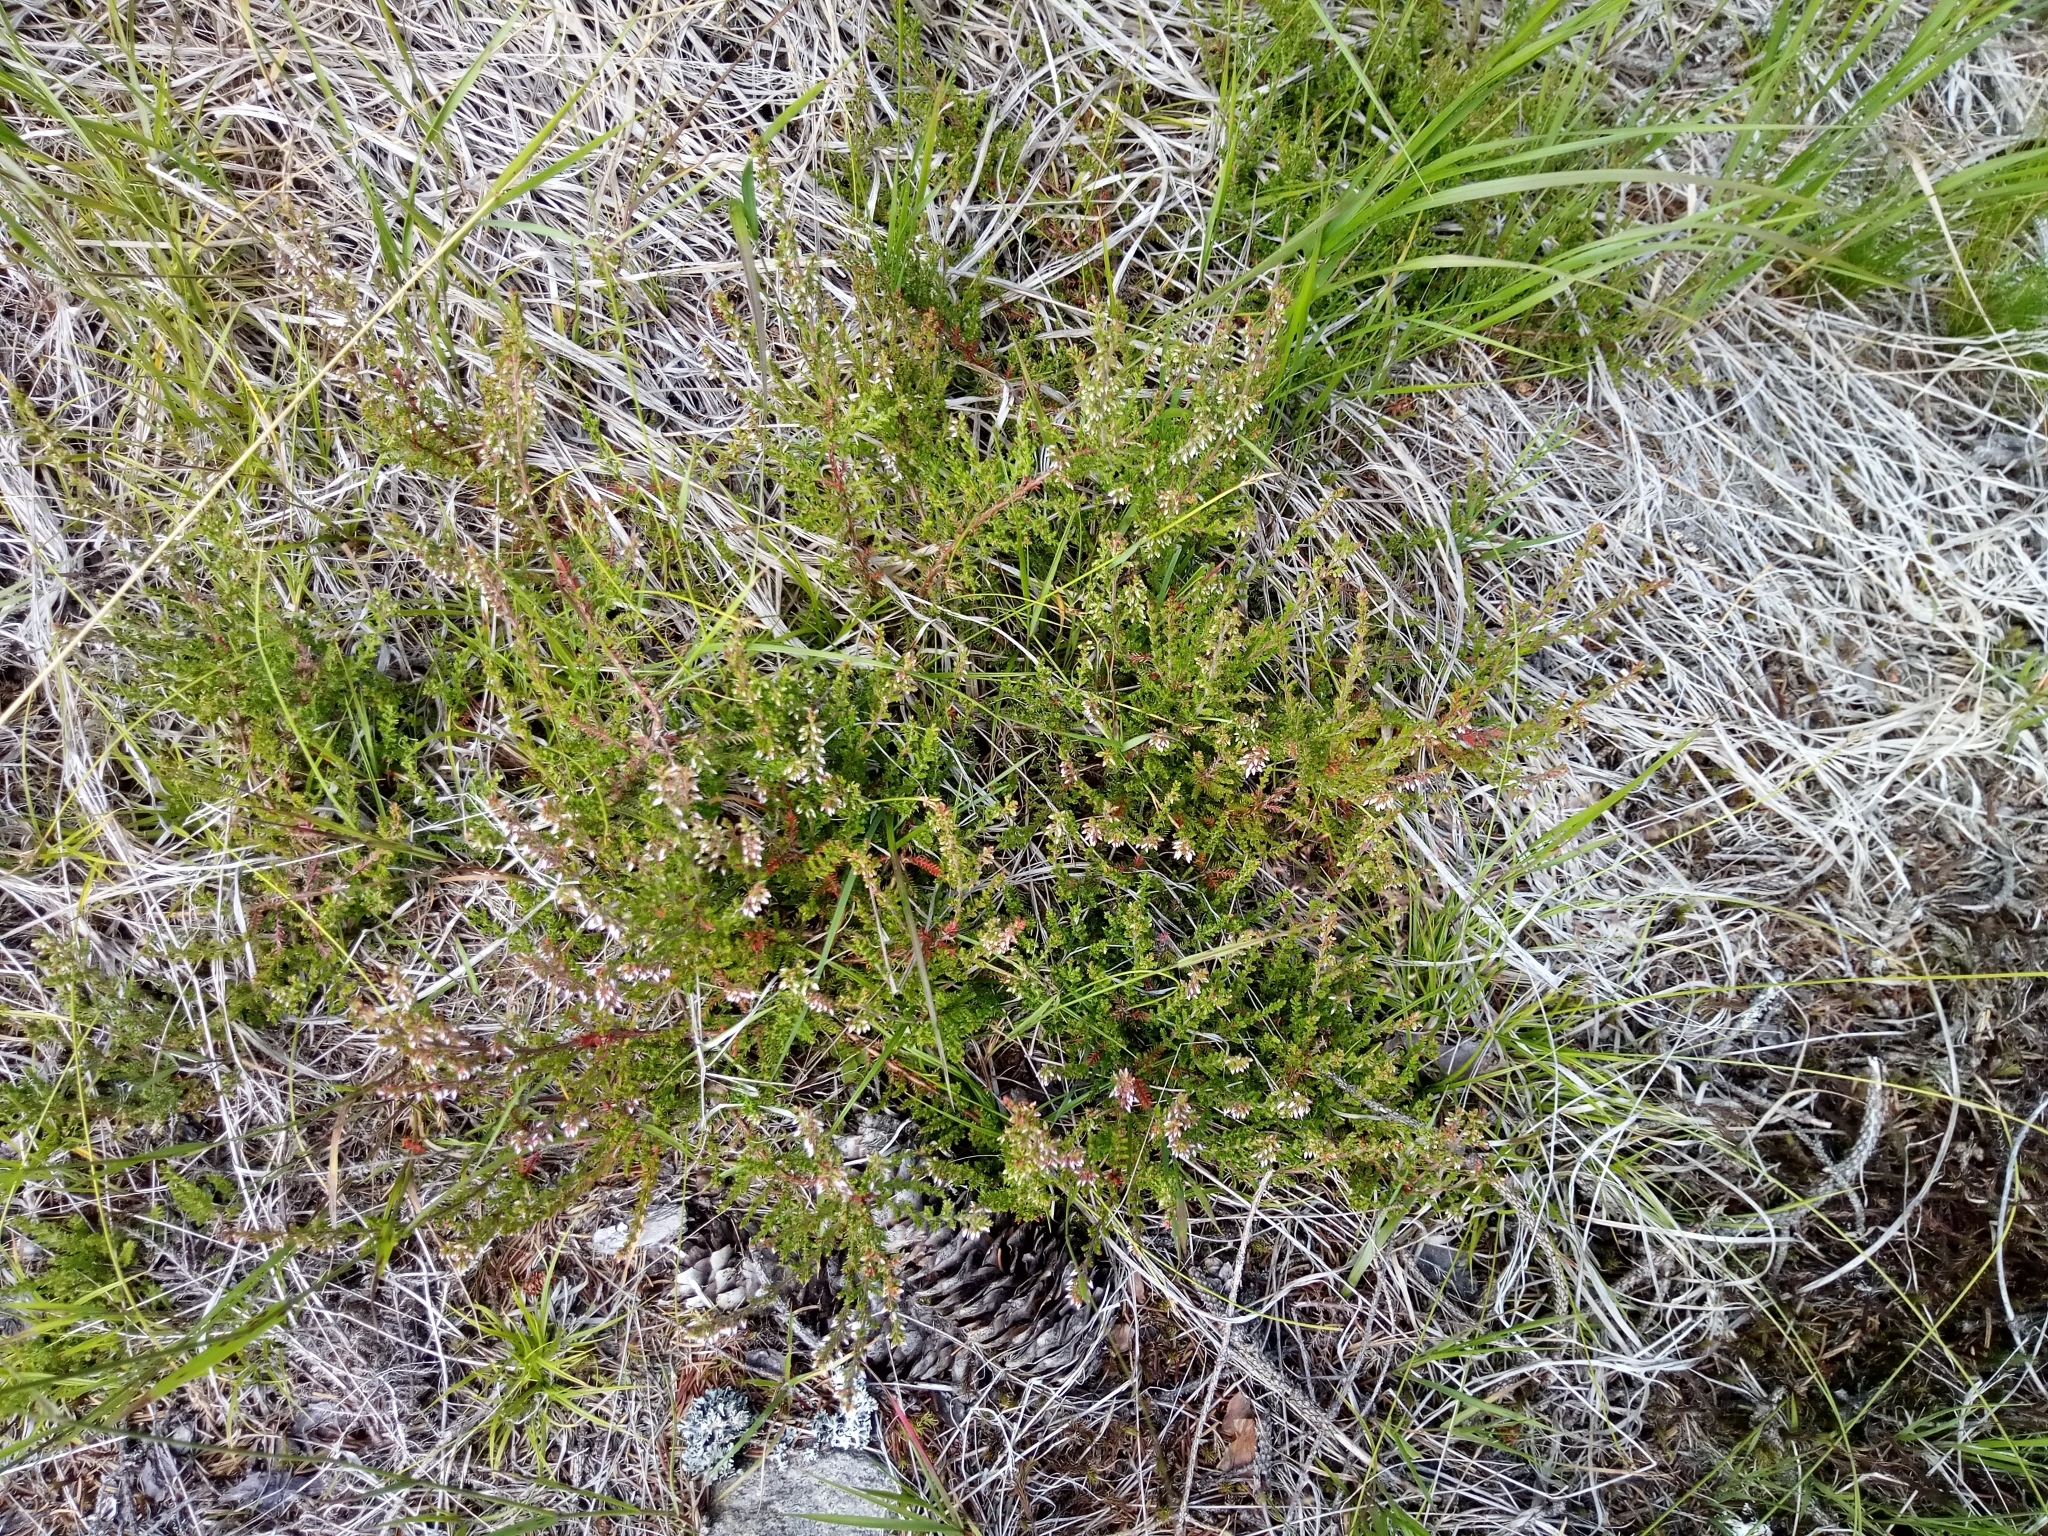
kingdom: Plantae
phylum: Tracheophyta
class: Magnoliopsida
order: Ericales
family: Ericaceae
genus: Calluna
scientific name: Calluna vulgaris
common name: Heather
